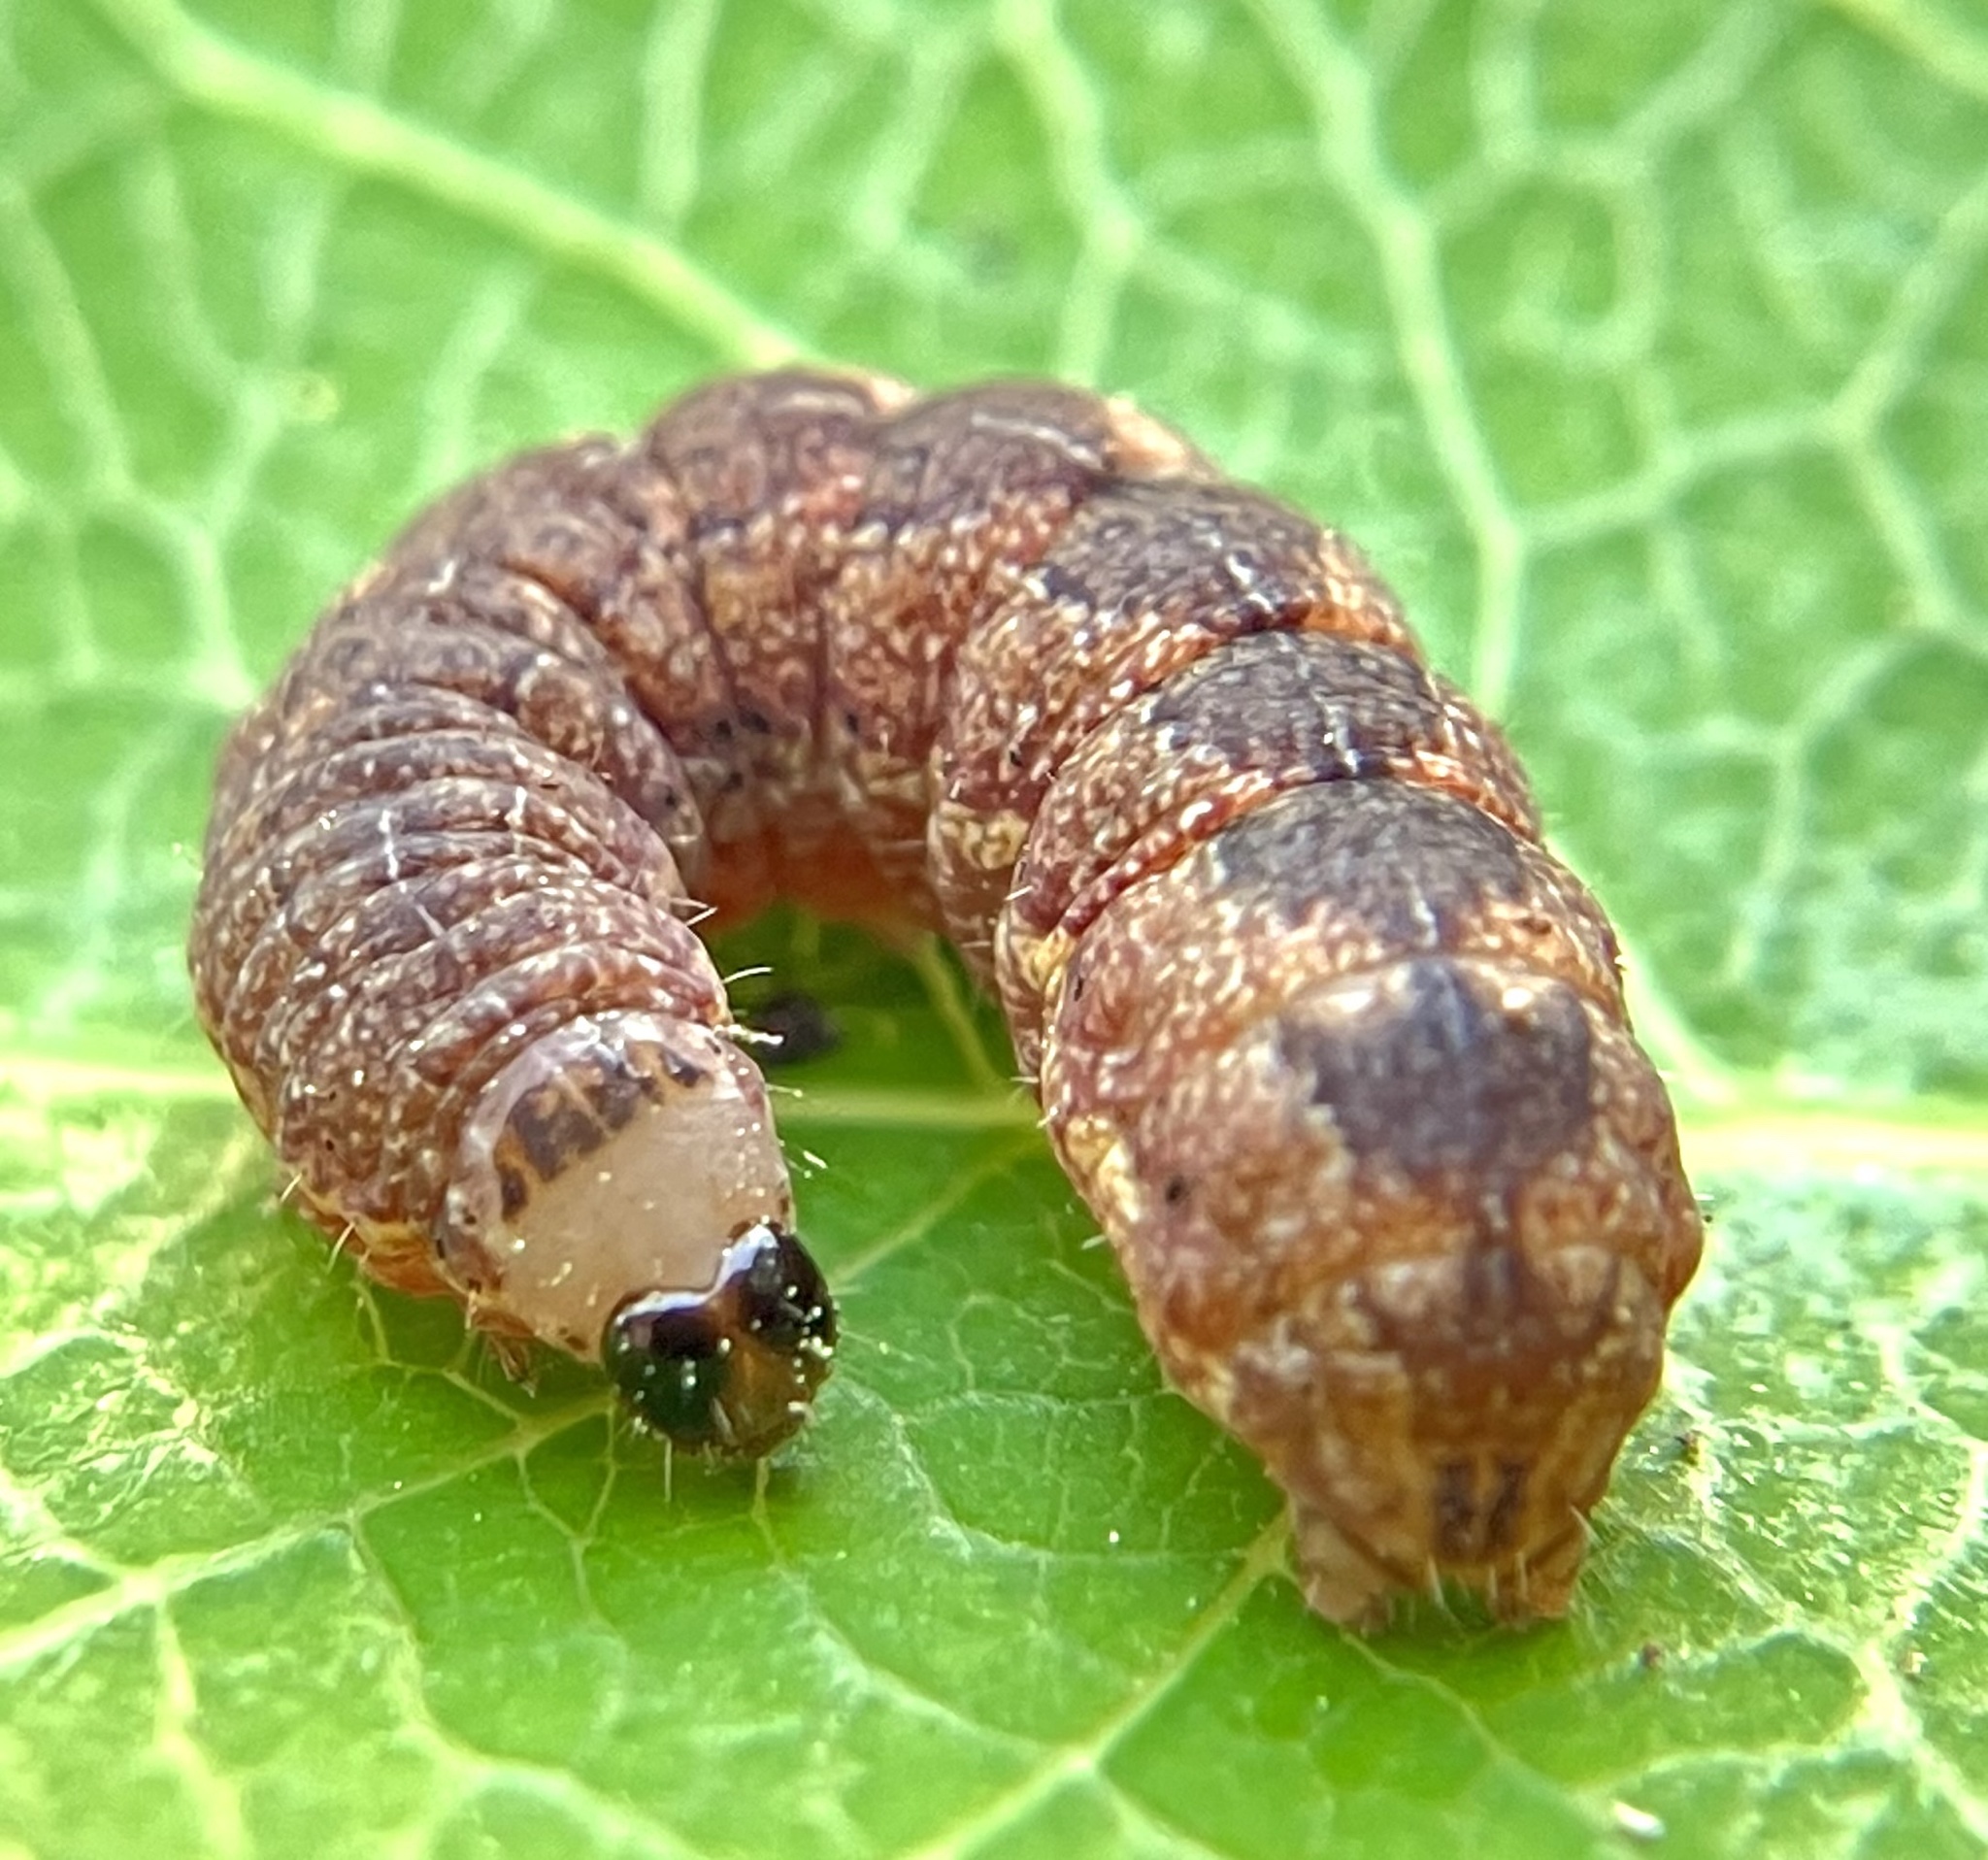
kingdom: Animalia
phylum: Arthropoda
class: Insecta
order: Lepidoptera
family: Noctuidae
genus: Agrochola
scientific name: Agrochola bicolorago
